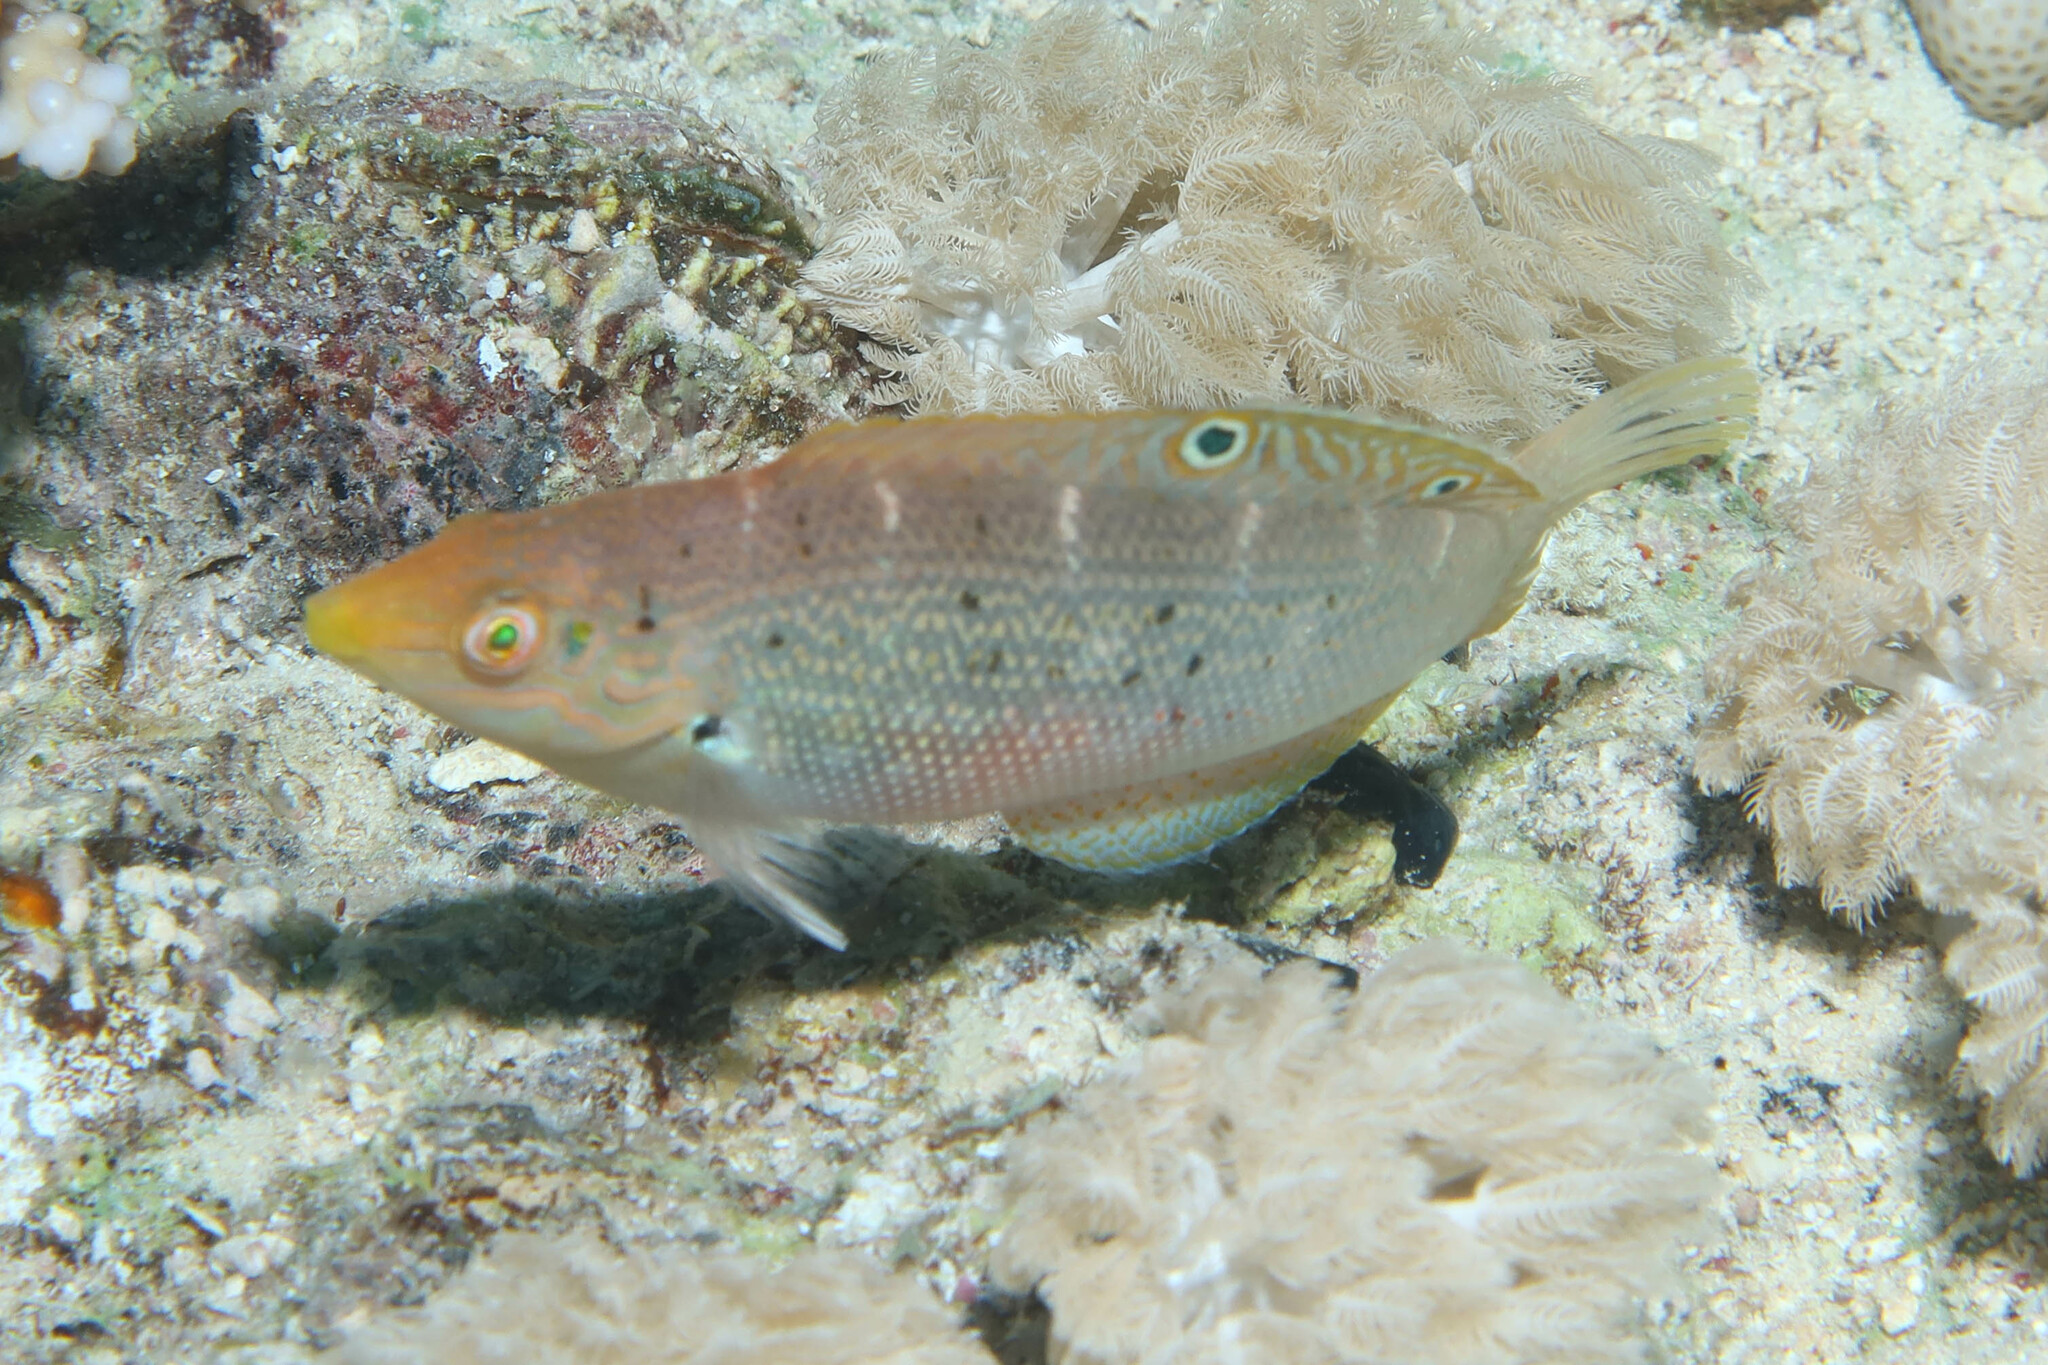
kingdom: Animalia
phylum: Chordata
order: Perciformes
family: Labridae
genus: Coris
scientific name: Coris variegata
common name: Dapple coris
